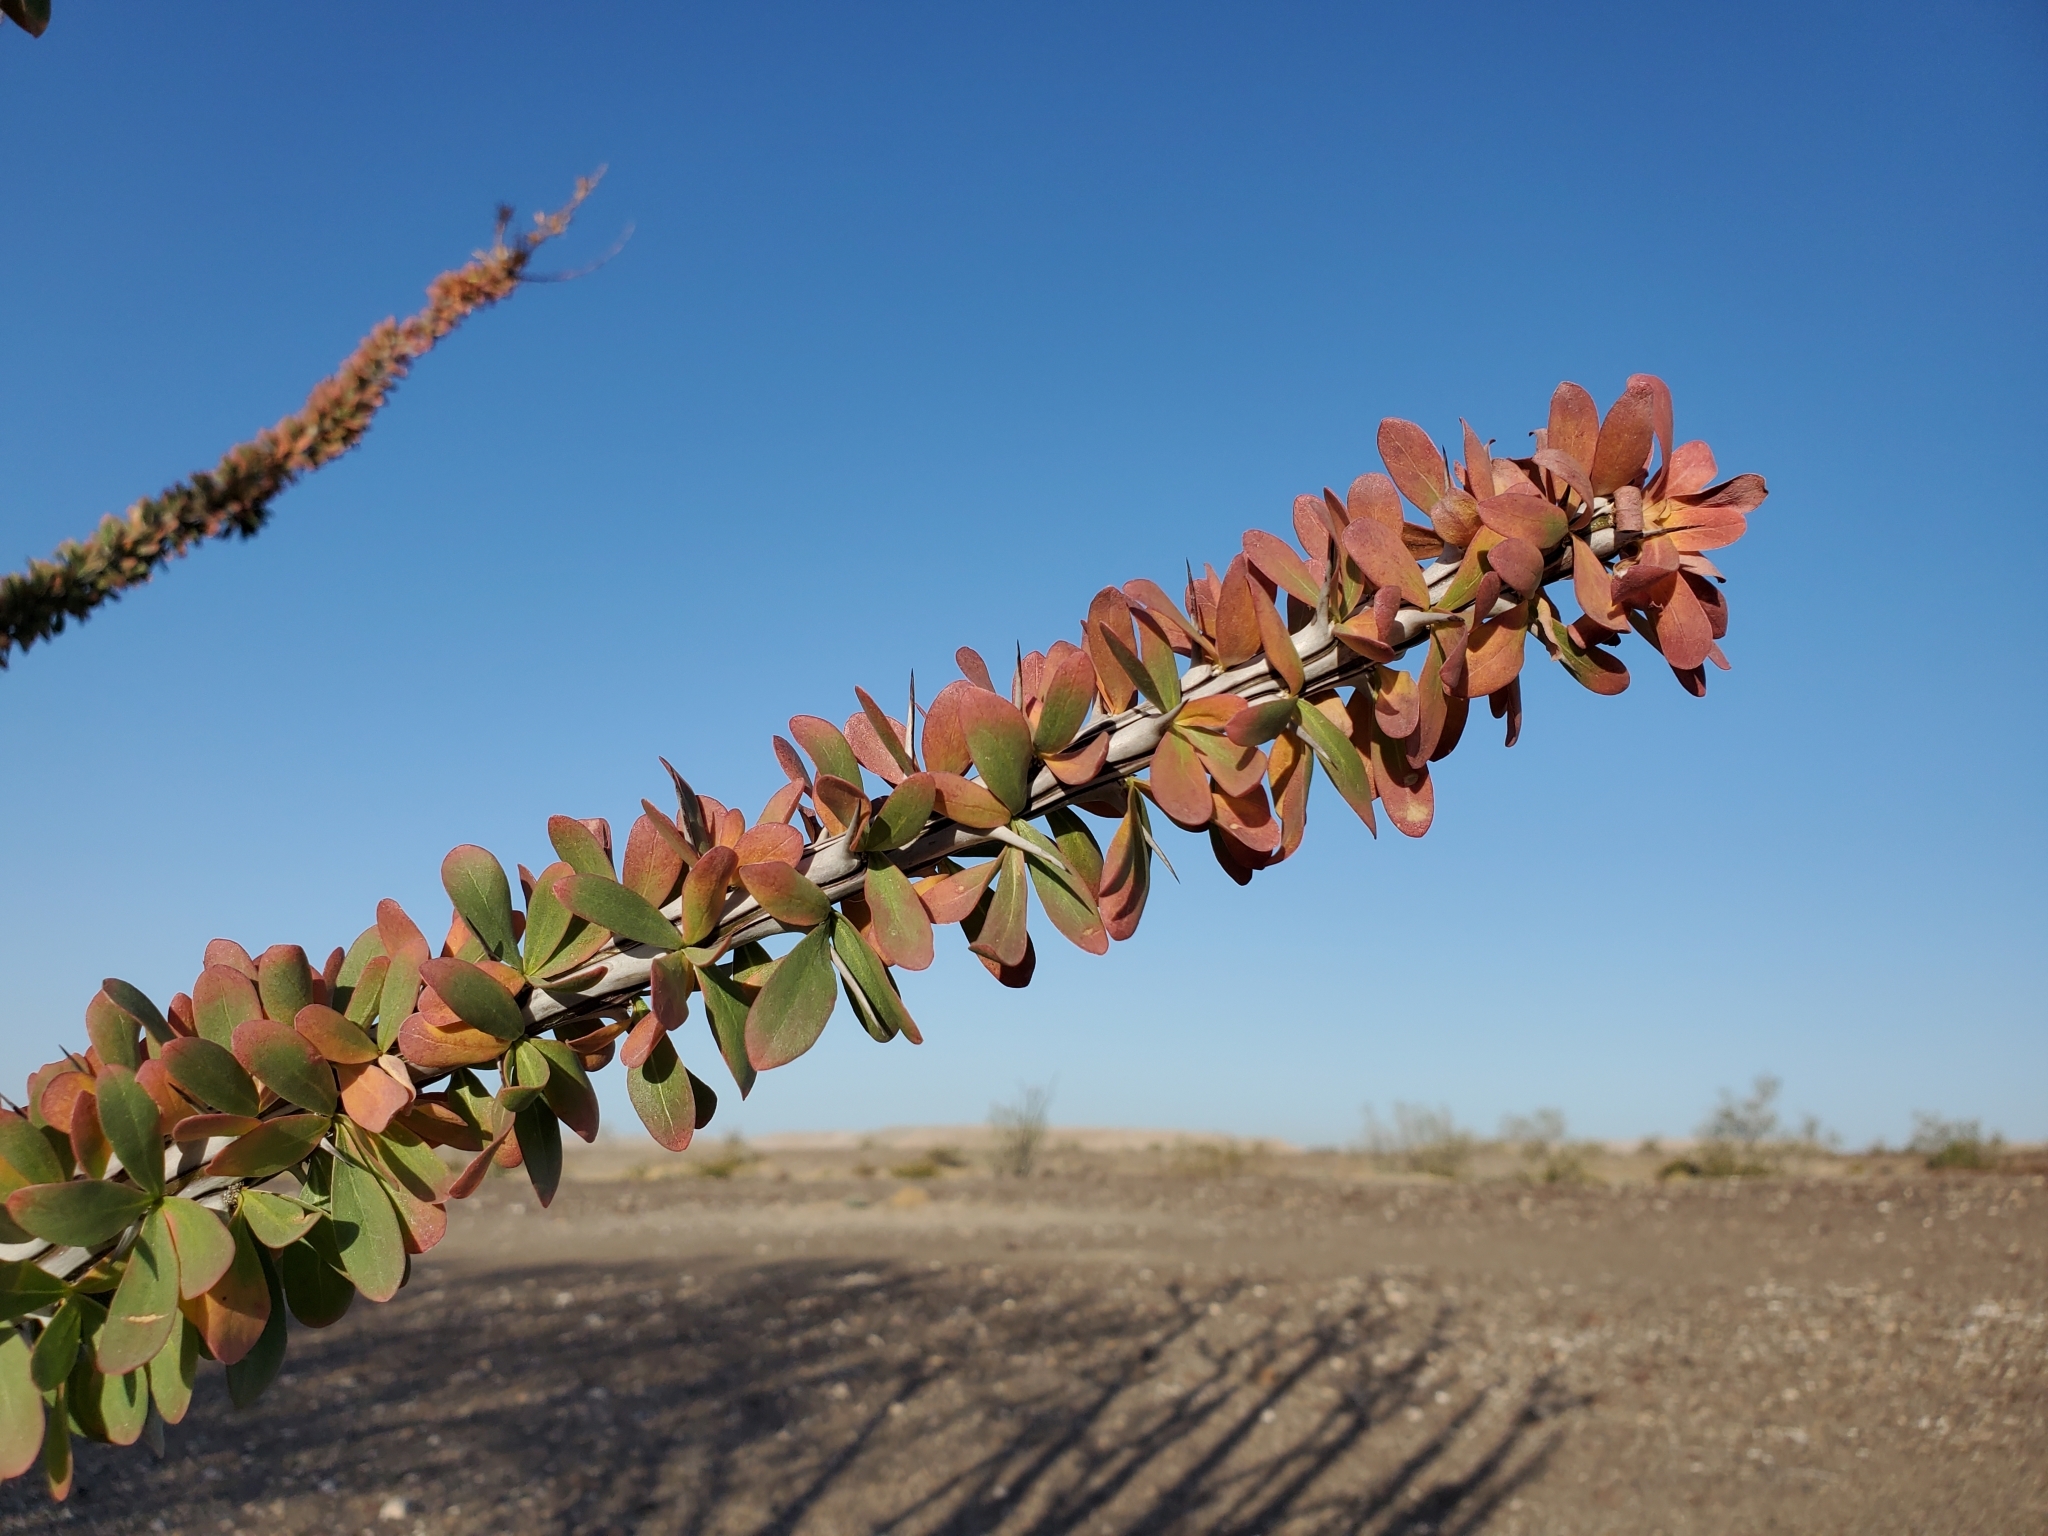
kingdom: Plantae
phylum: Tracheophyta
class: Magnoliopsida
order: Ericales
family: Fouquieriaceae
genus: Fouquieria
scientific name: Fouquieria splendens
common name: Vine-cactus
